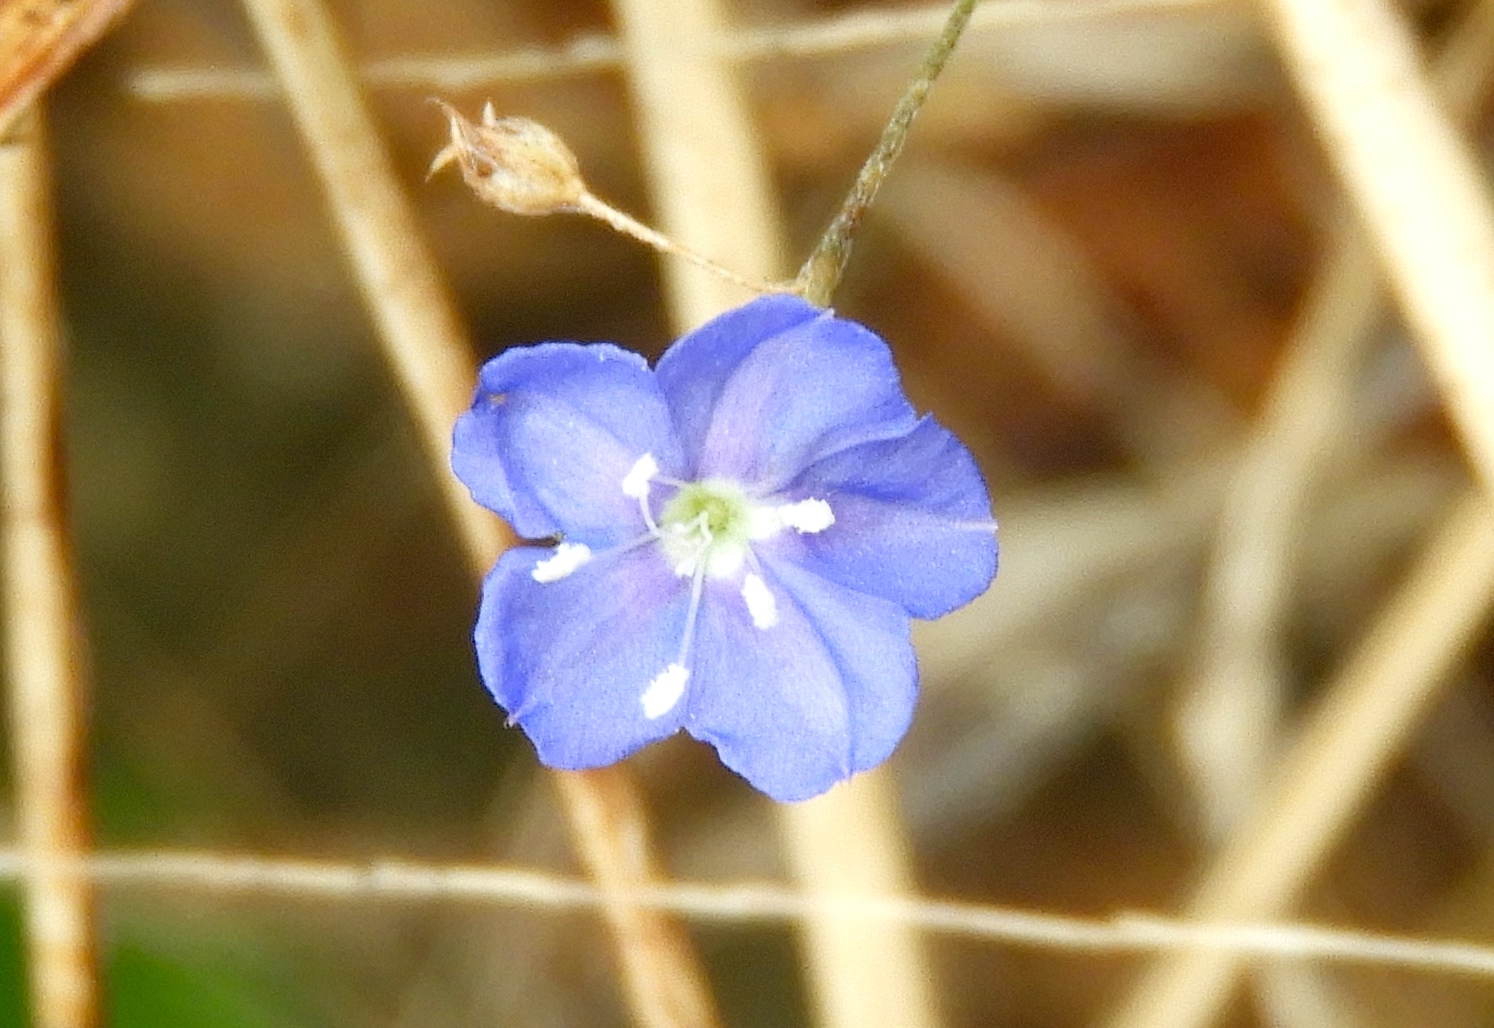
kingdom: Plantae
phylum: Tracheophyta
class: Magnoliopsida
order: Solanales
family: Convolvulaceae
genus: Evolvulus
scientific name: Evolvulus alsinoides
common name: Slender dwarf morning-glory
